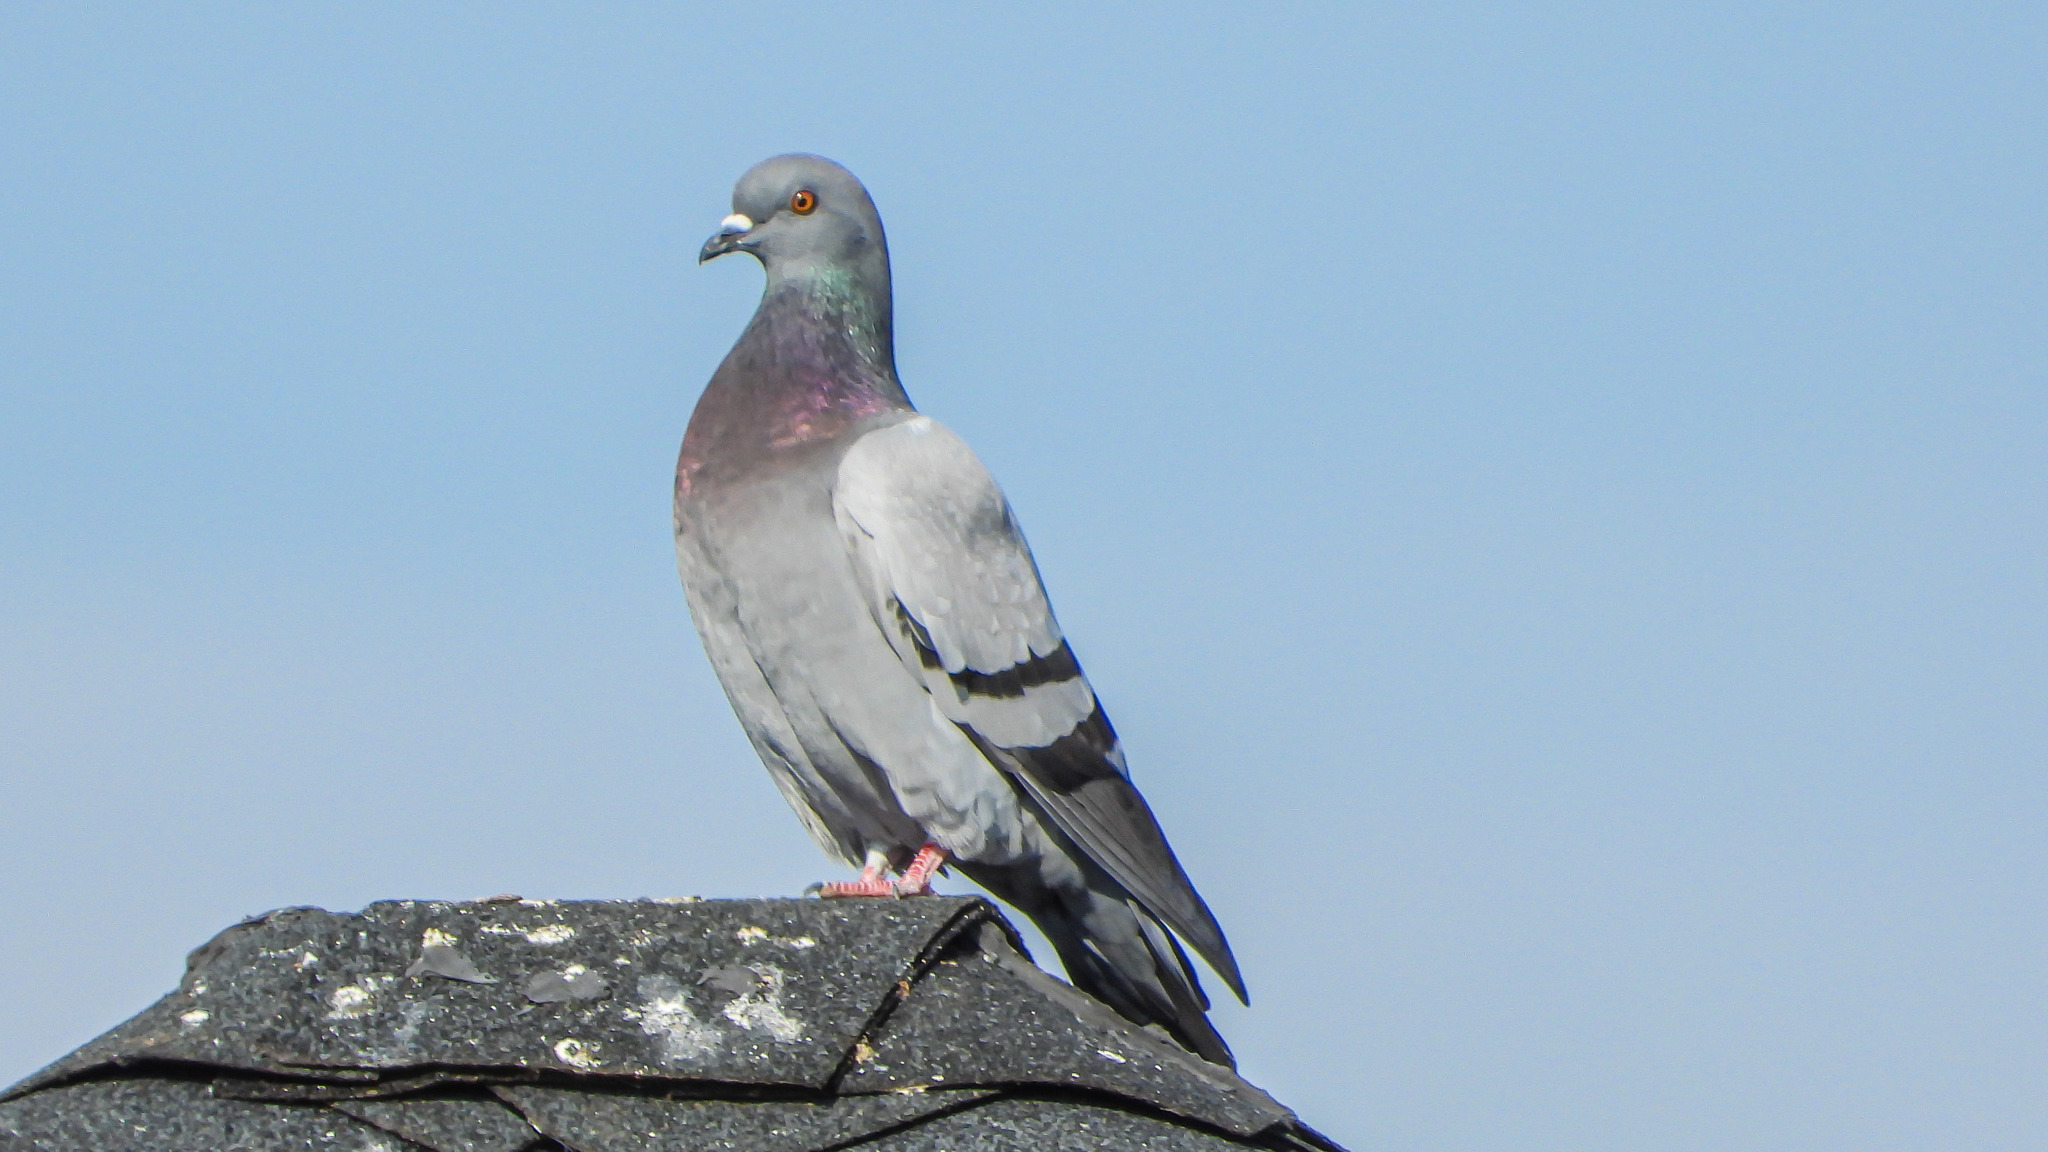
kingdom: Animalia
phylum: Chordata
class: Aves
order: Columbiformes
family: Columbidae
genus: Columba
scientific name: Columba livia
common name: Rock pigeon
